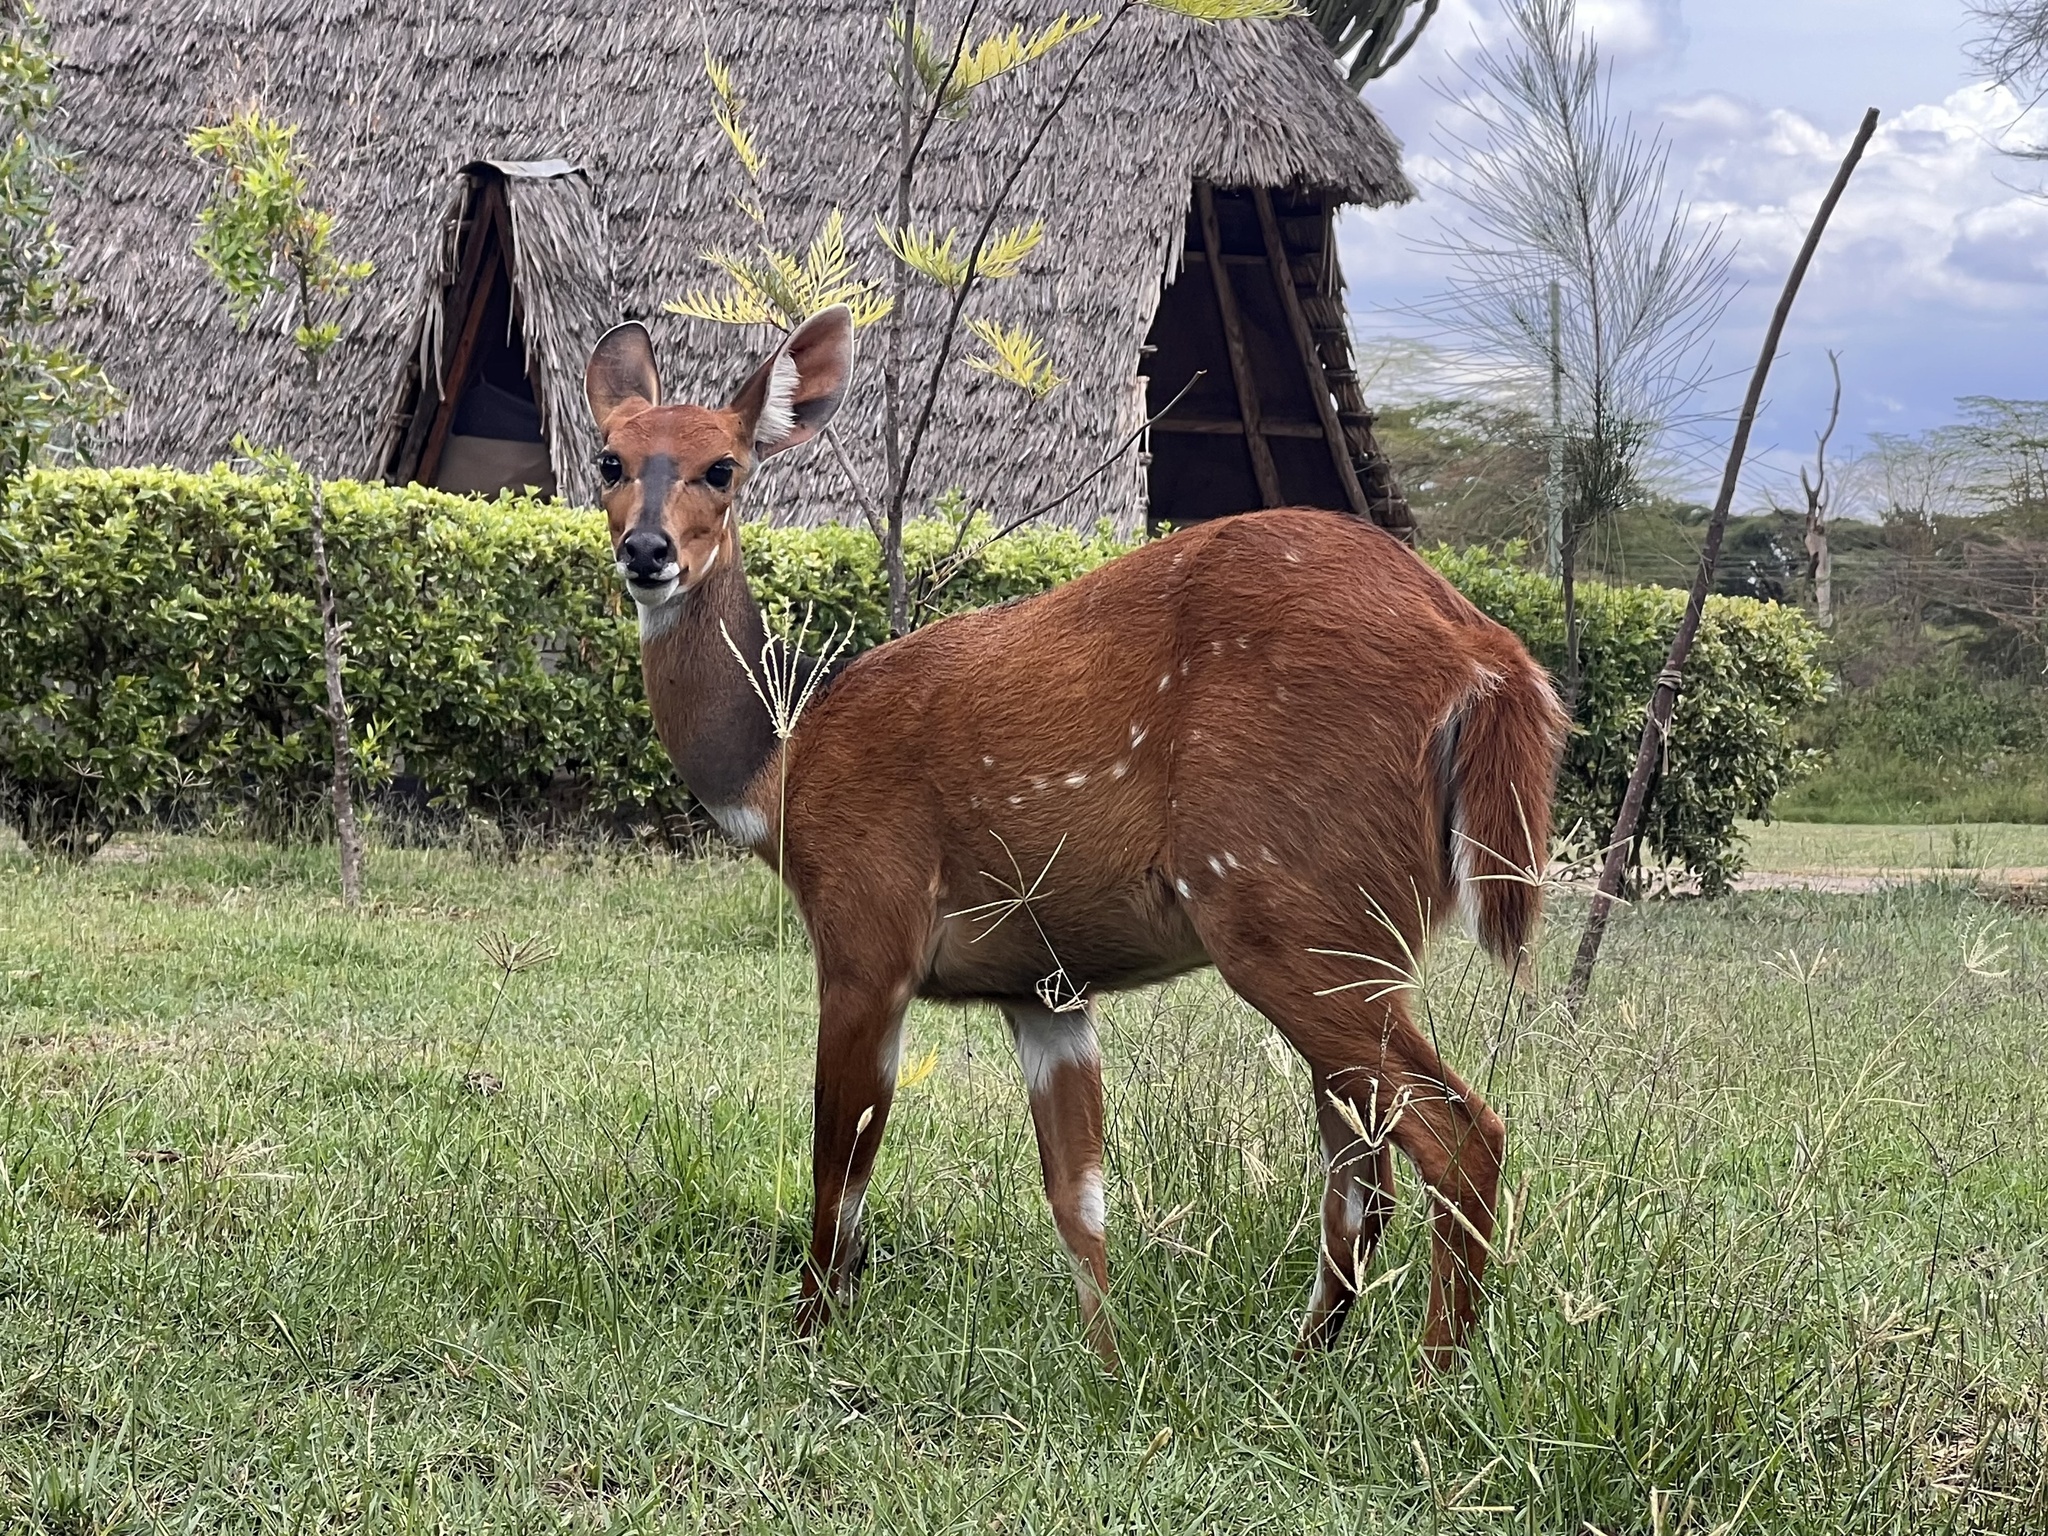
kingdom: Animalia
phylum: Chordata
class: Mammalia
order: Artiodactyla
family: Bovidae
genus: Tragelaphus
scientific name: Tragelaphus scriptus
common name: Bushbuck
